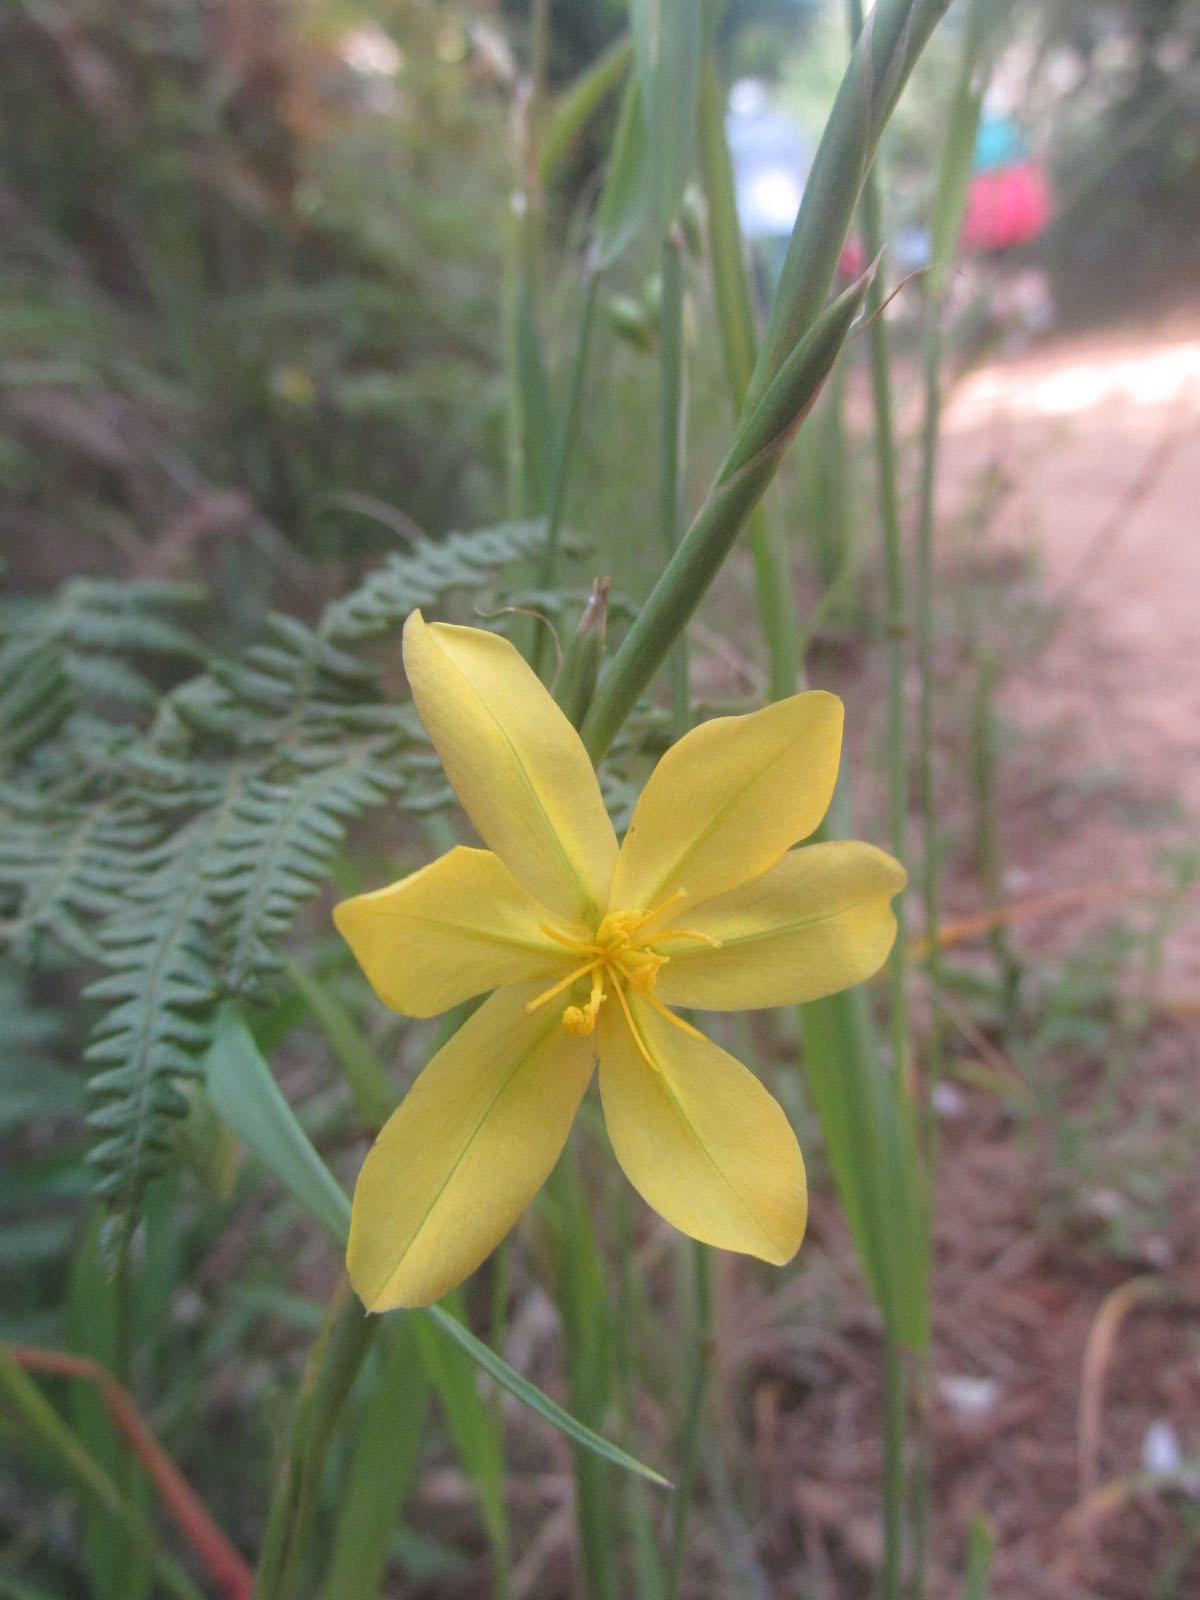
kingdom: Plantae
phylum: Tracheophyta
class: Liliopsida
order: Asparagales
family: Iridaceae
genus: Moraea
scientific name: Moraea lewisiae
